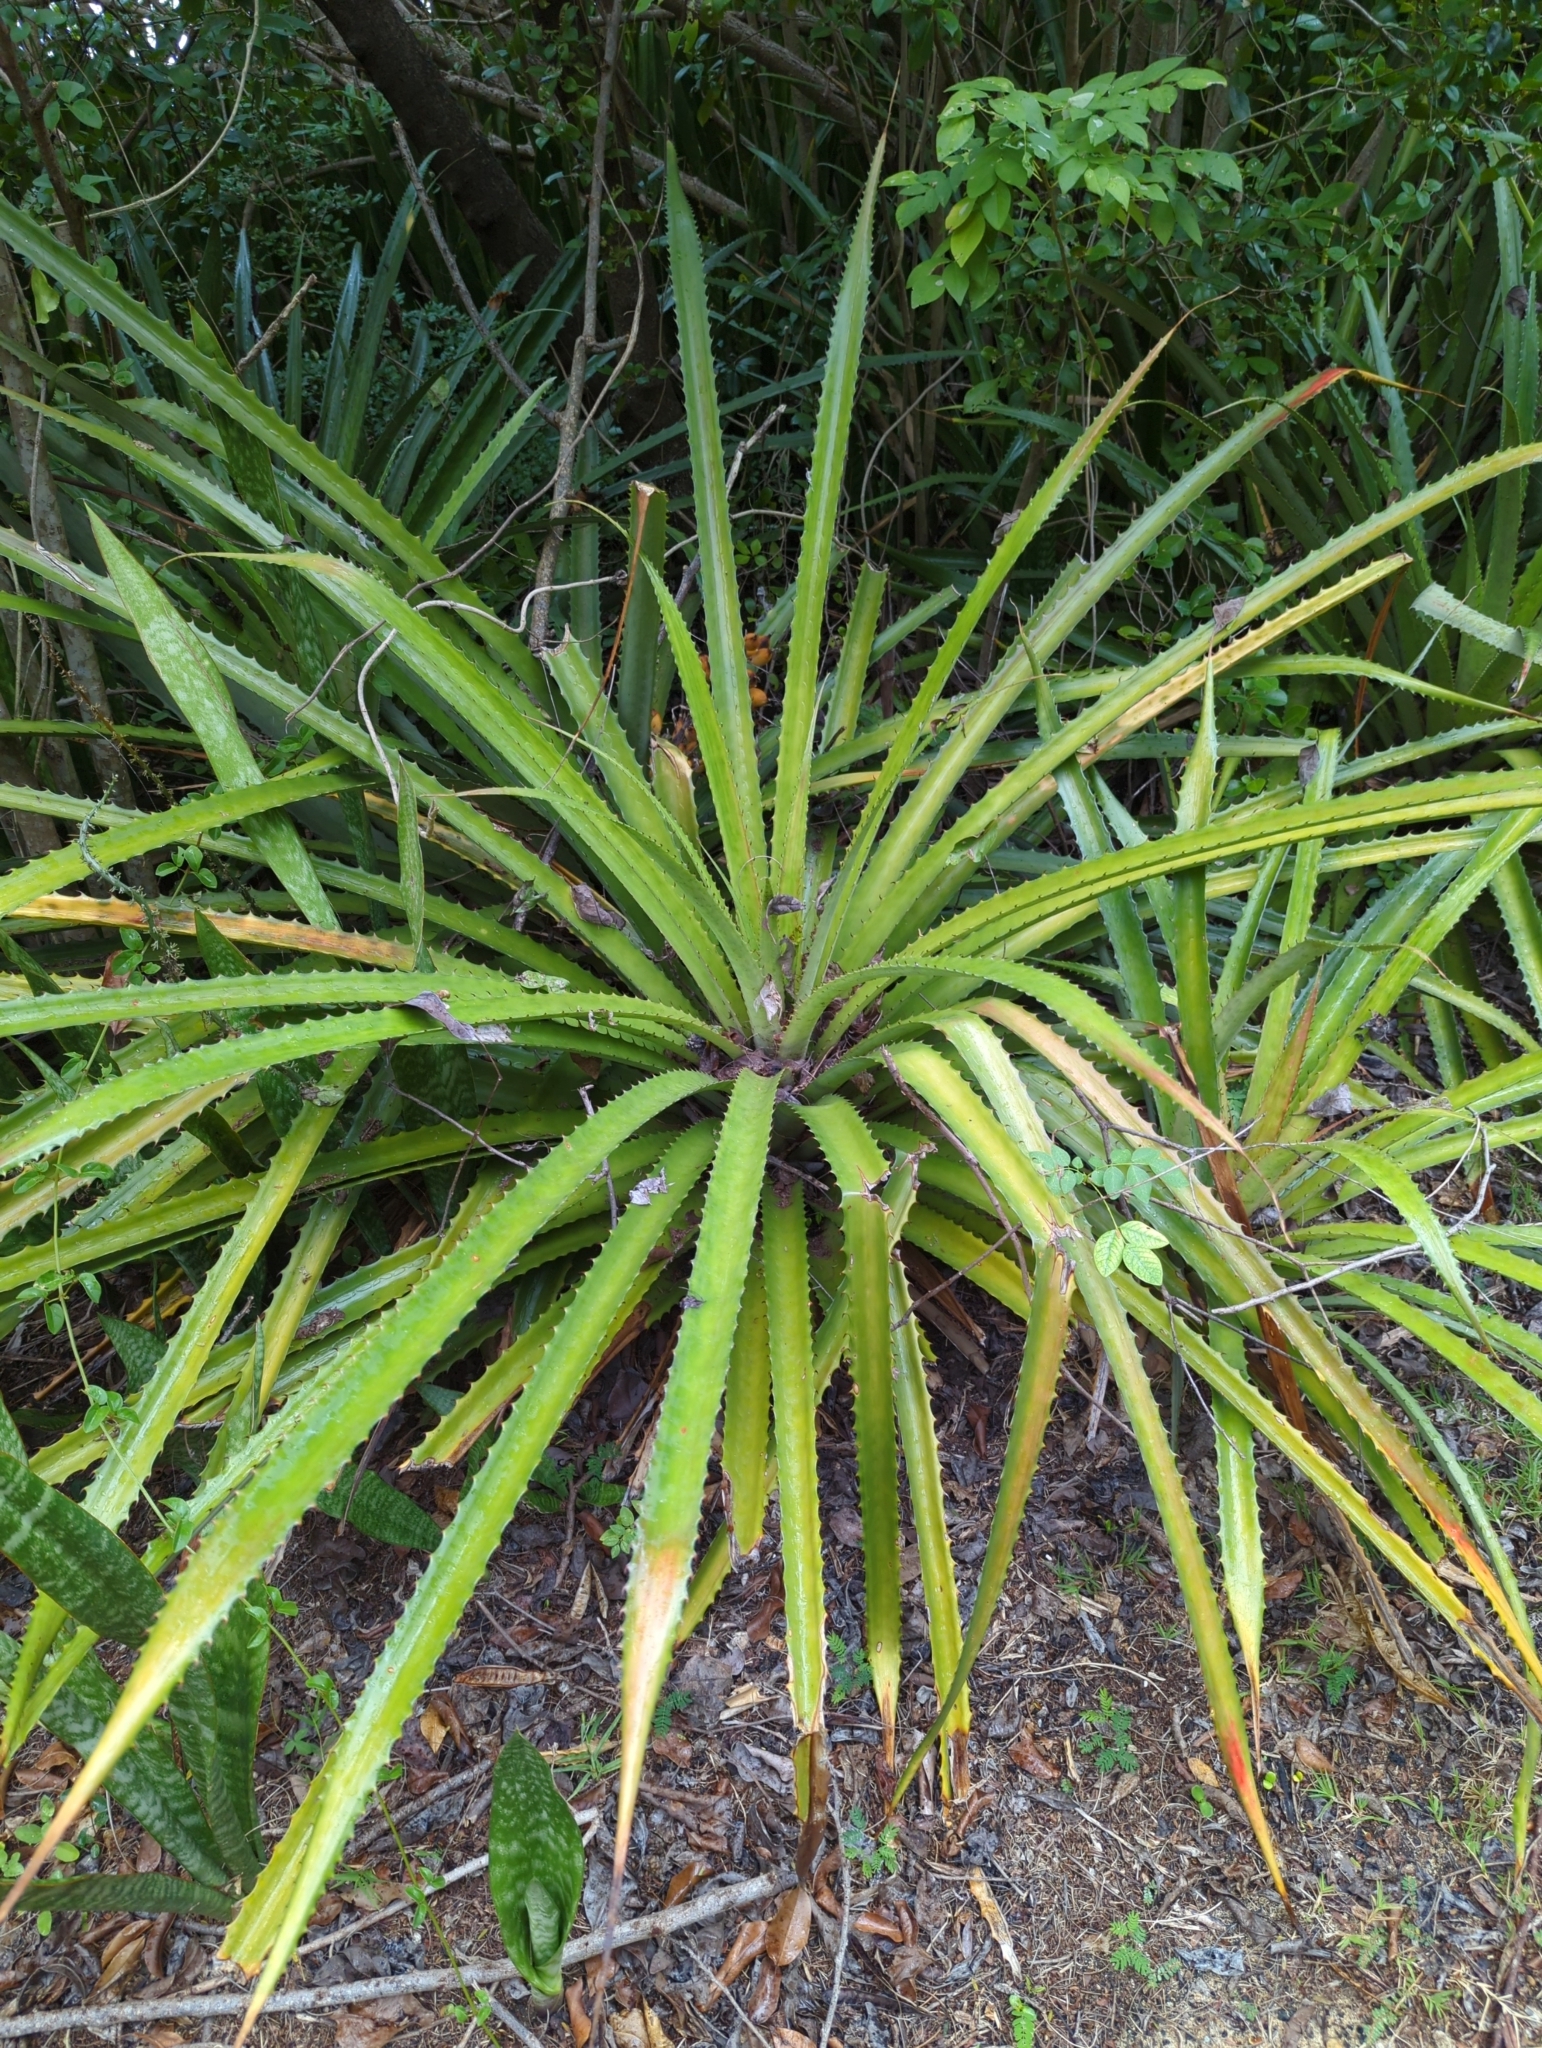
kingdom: Plantae
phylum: Tracheophyta
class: Liliopsida
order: Poales
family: Bromeliaceae
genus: Bromelia
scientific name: Bromelia pinguin
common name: Pinguin
